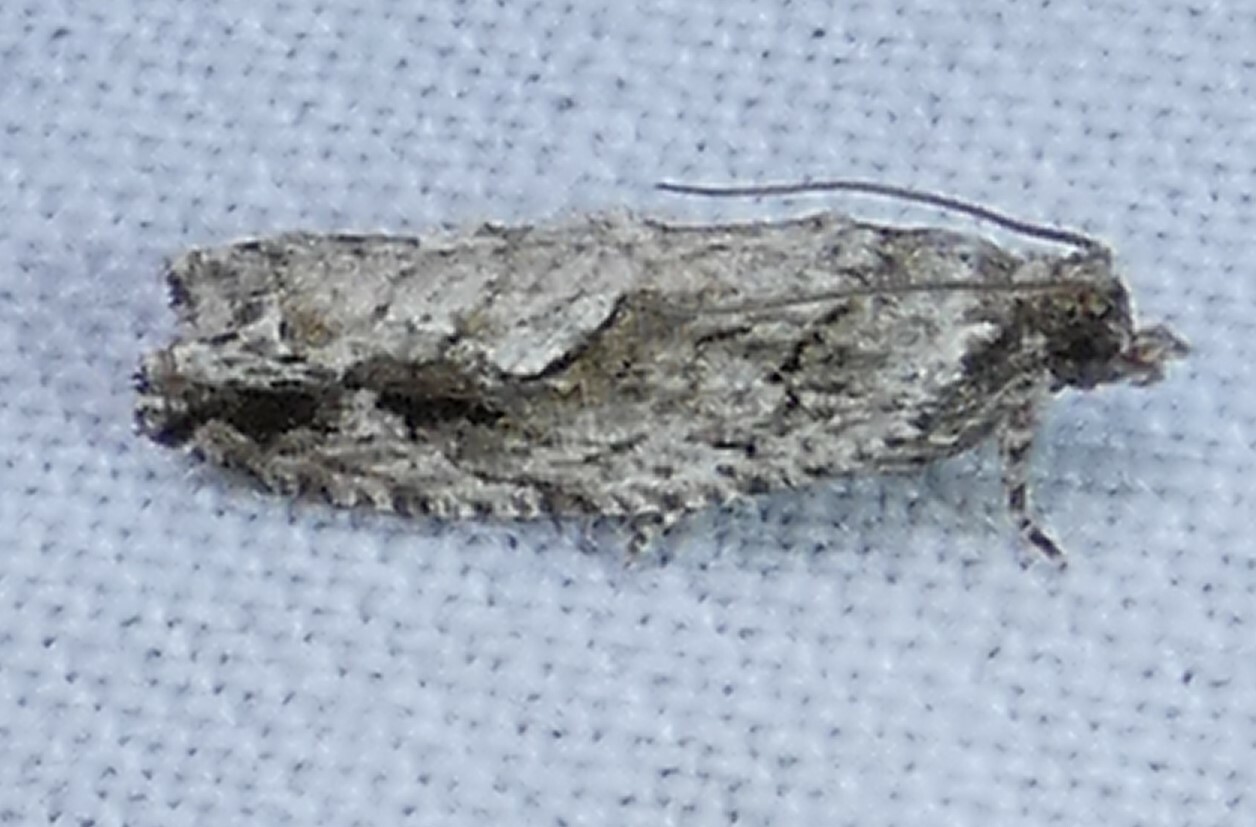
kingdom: Animalia
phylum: Arthropoda
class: Insecta
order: Lepidoptera
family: Tortricidae
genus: Gretchena
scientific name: Gretchena bolliana
